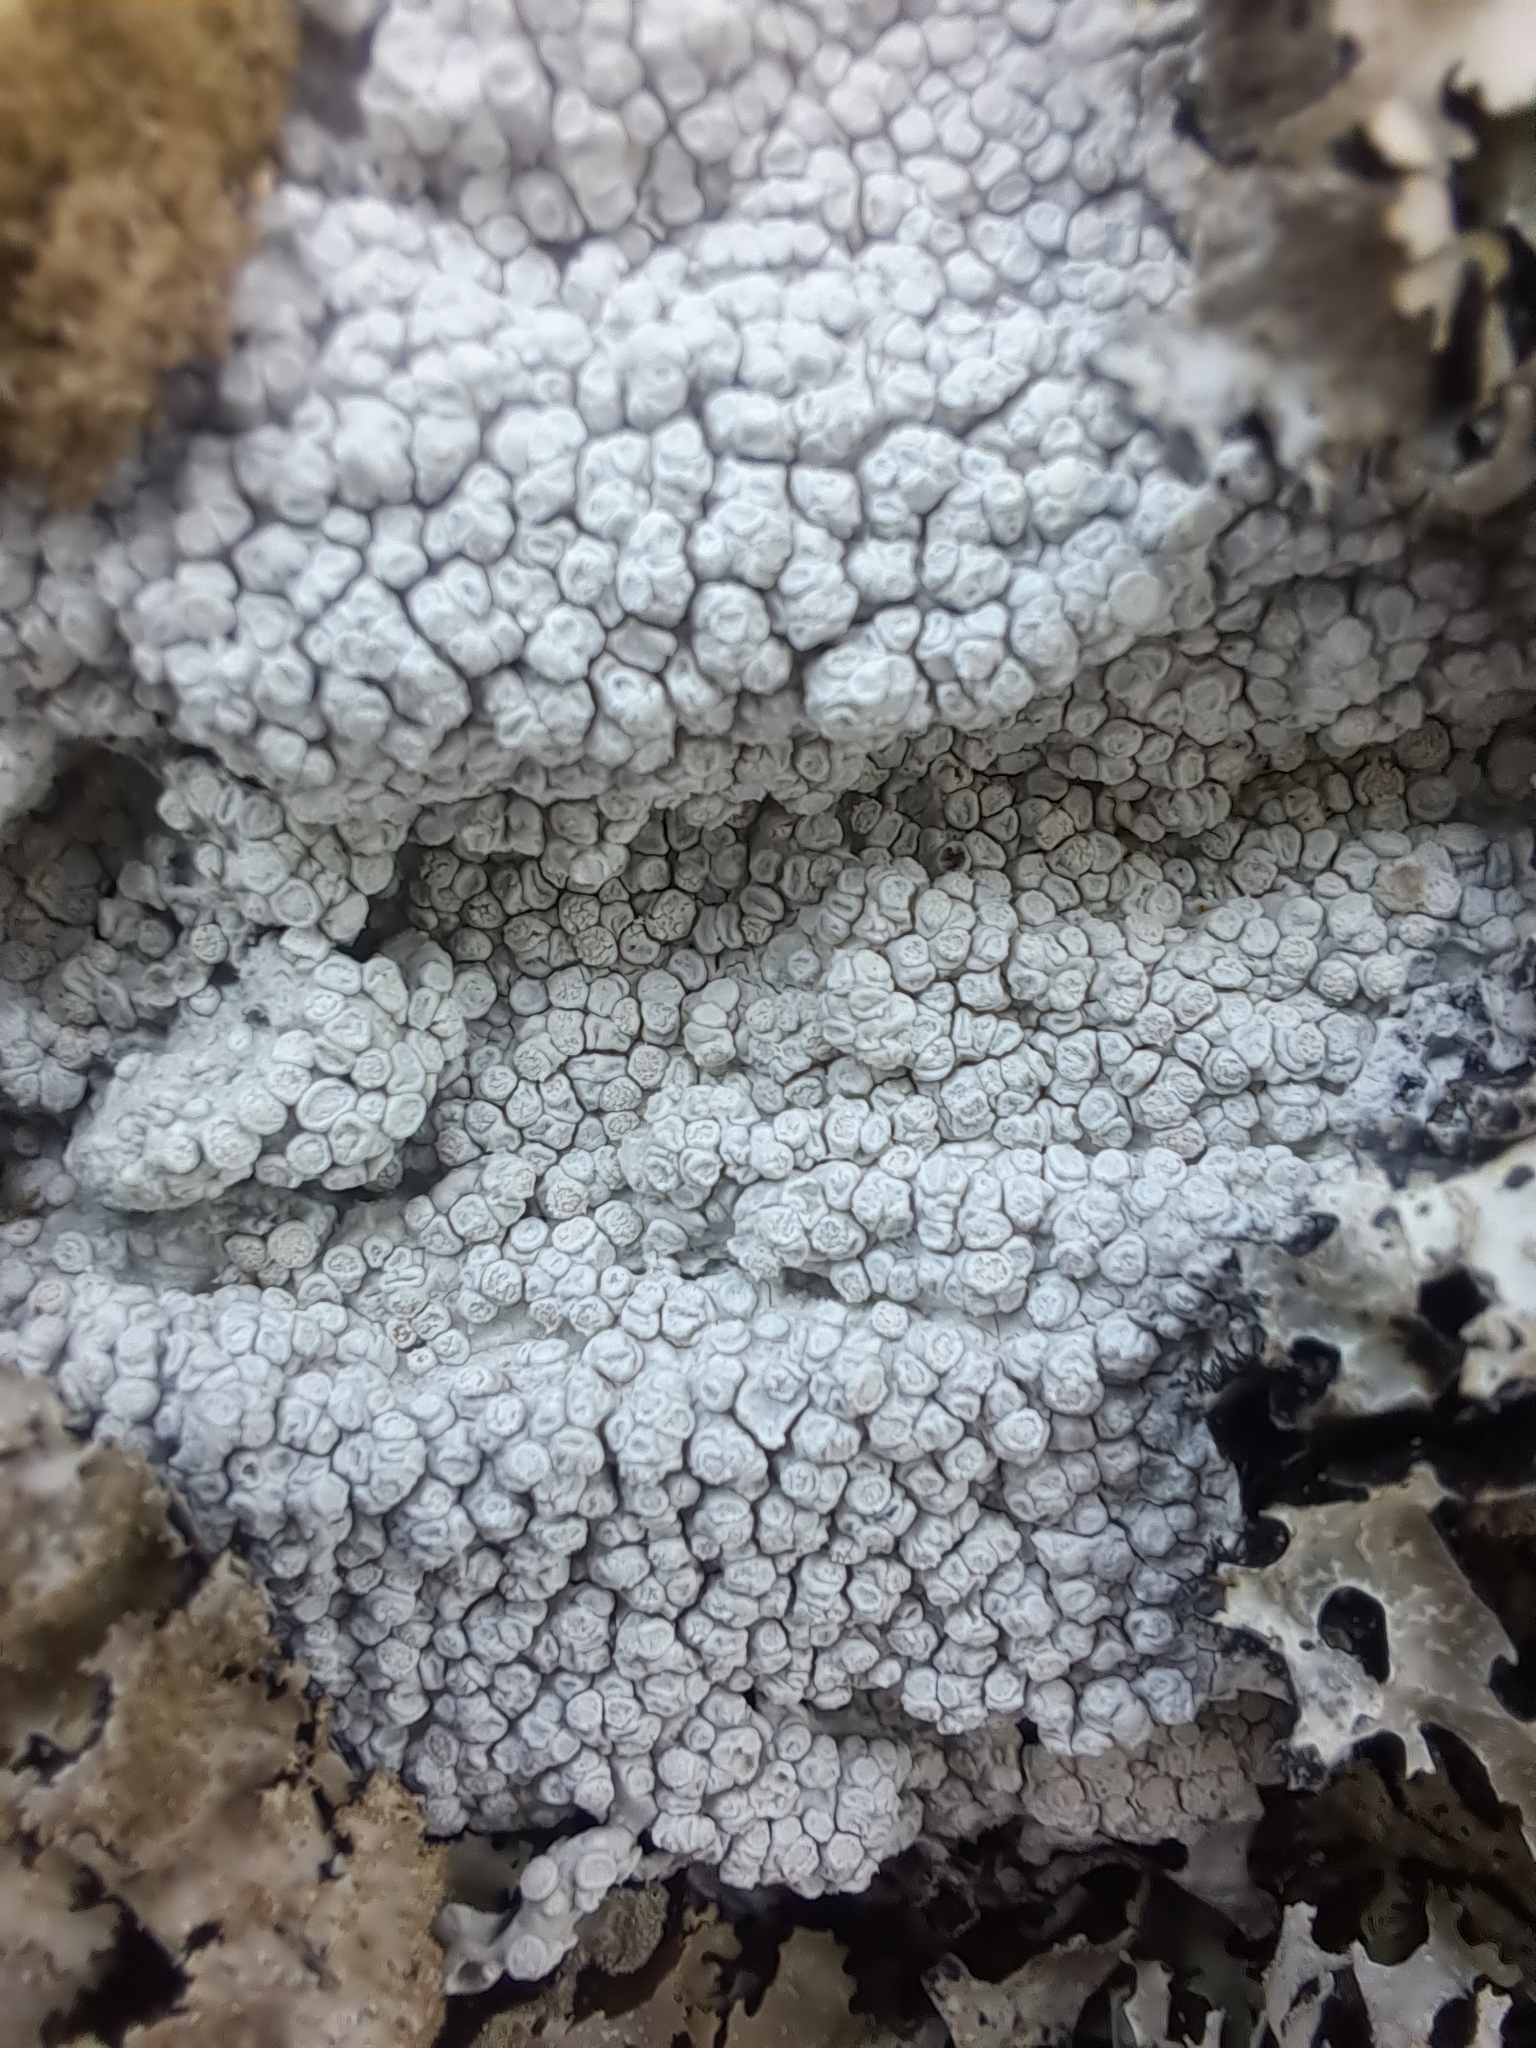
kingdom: Fungi
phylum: Ascomycota
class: Lecanoromycetes
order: Pertusariales
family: Pertusariaceae
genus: Lepra
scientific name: Lepra amara
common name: Bitter wart lichen
